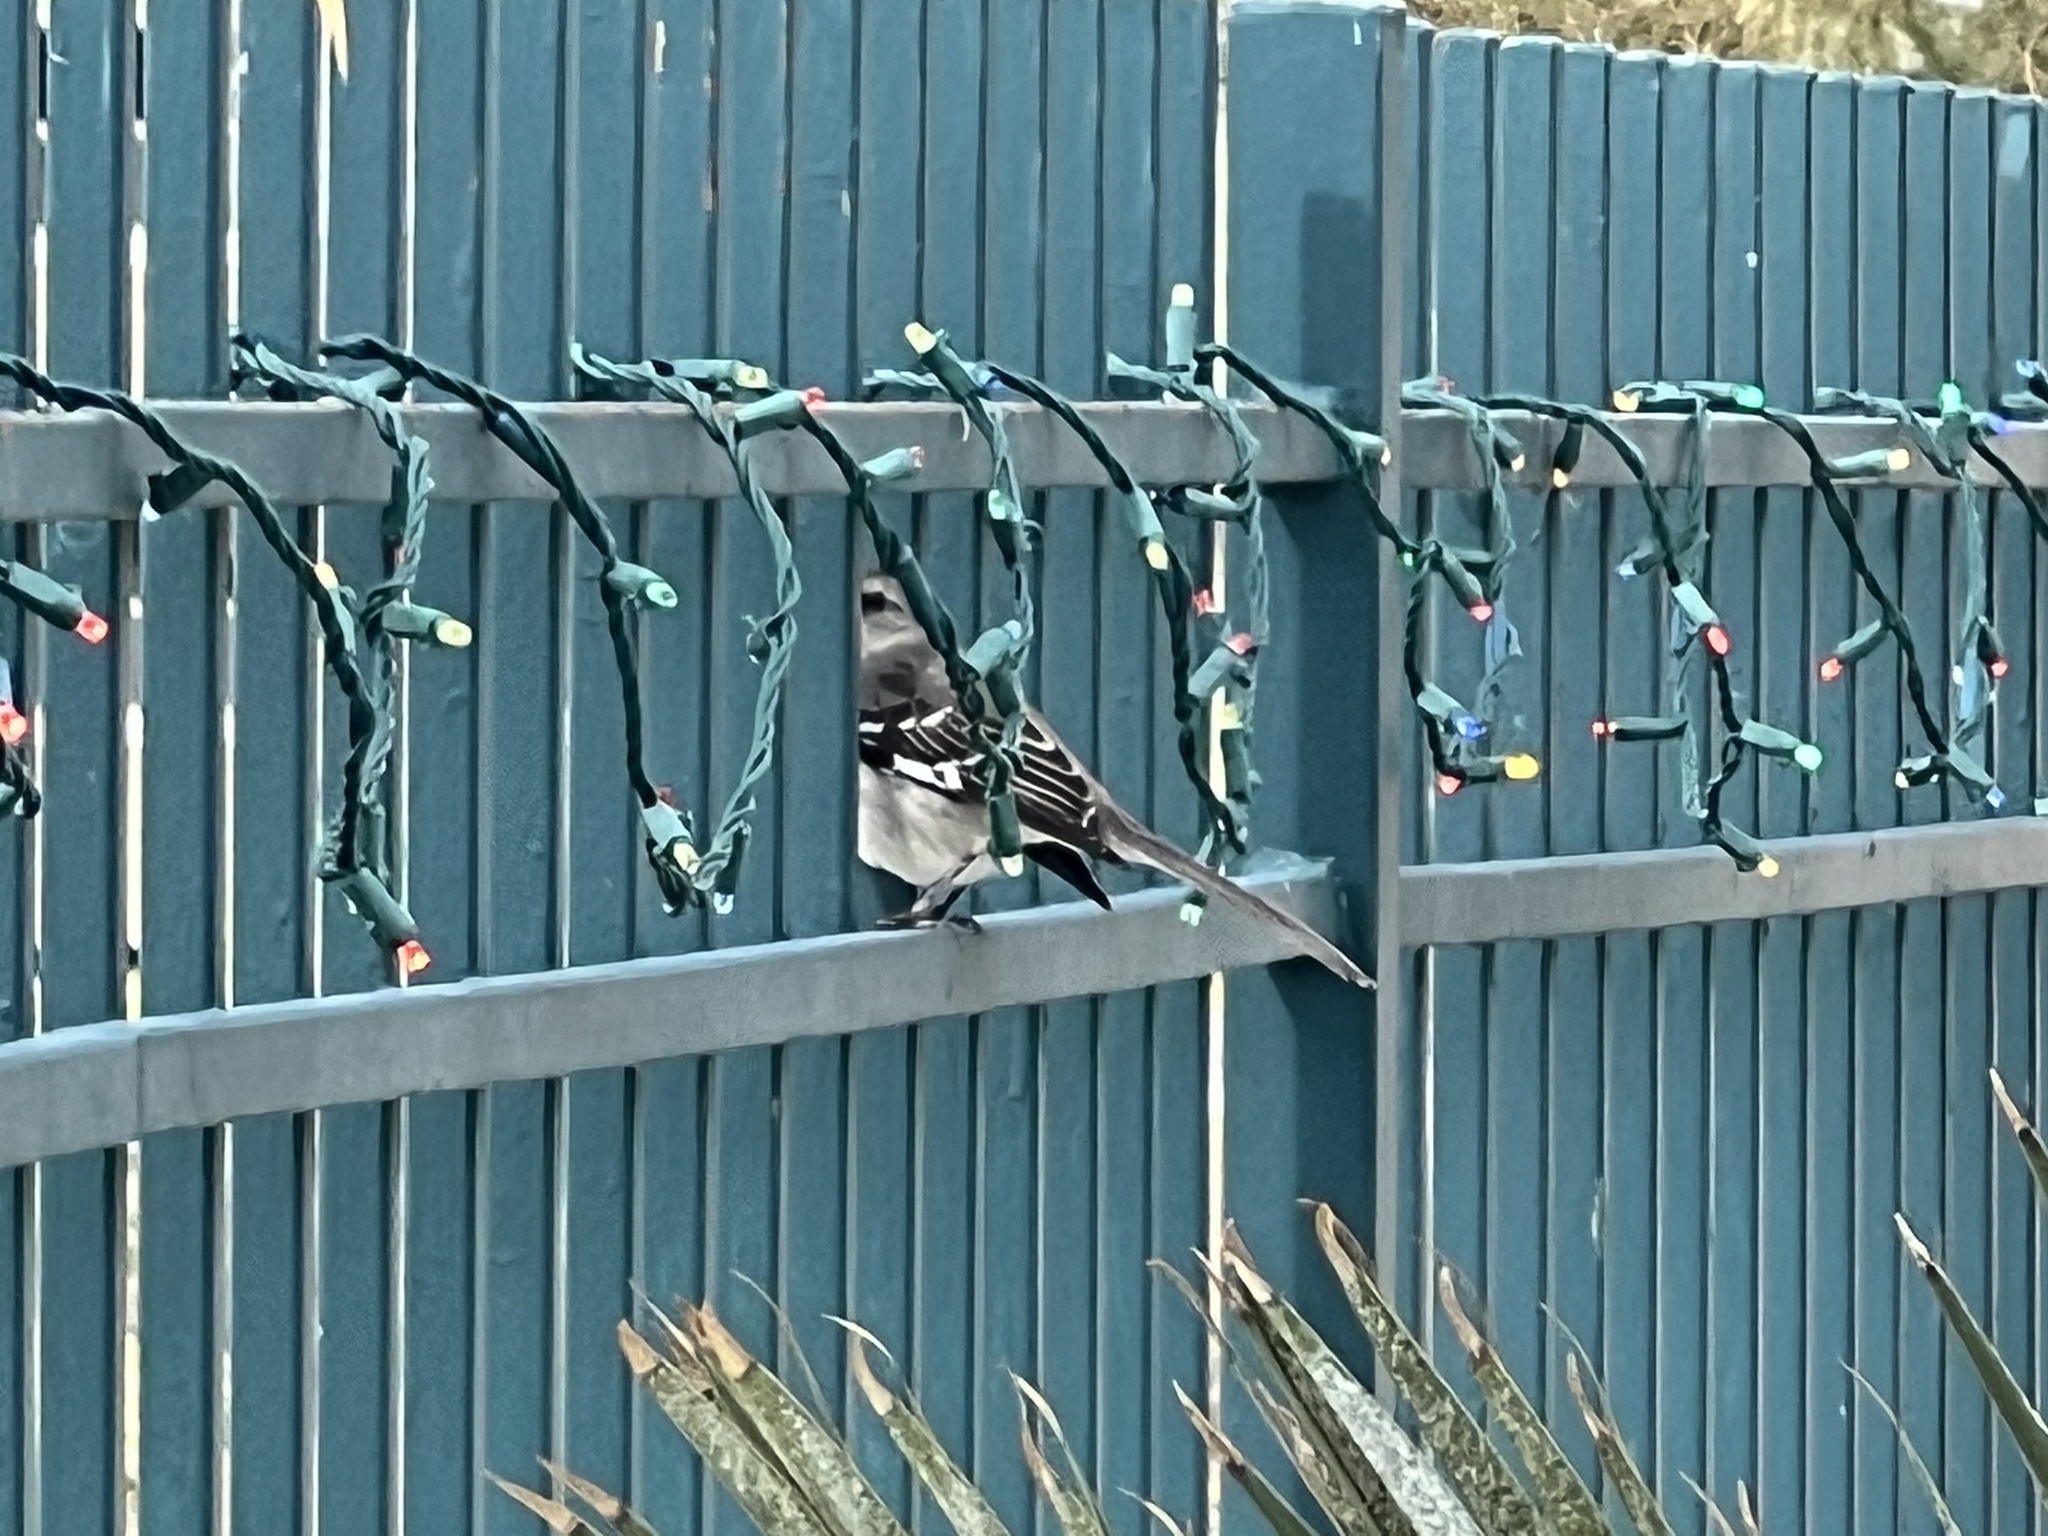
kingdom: Animalia
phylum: Chordata
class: Aves
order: Passeriformes
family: Mimidae
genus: Mimus
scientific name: Mimus polyglottos
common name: Northern mockingbird
